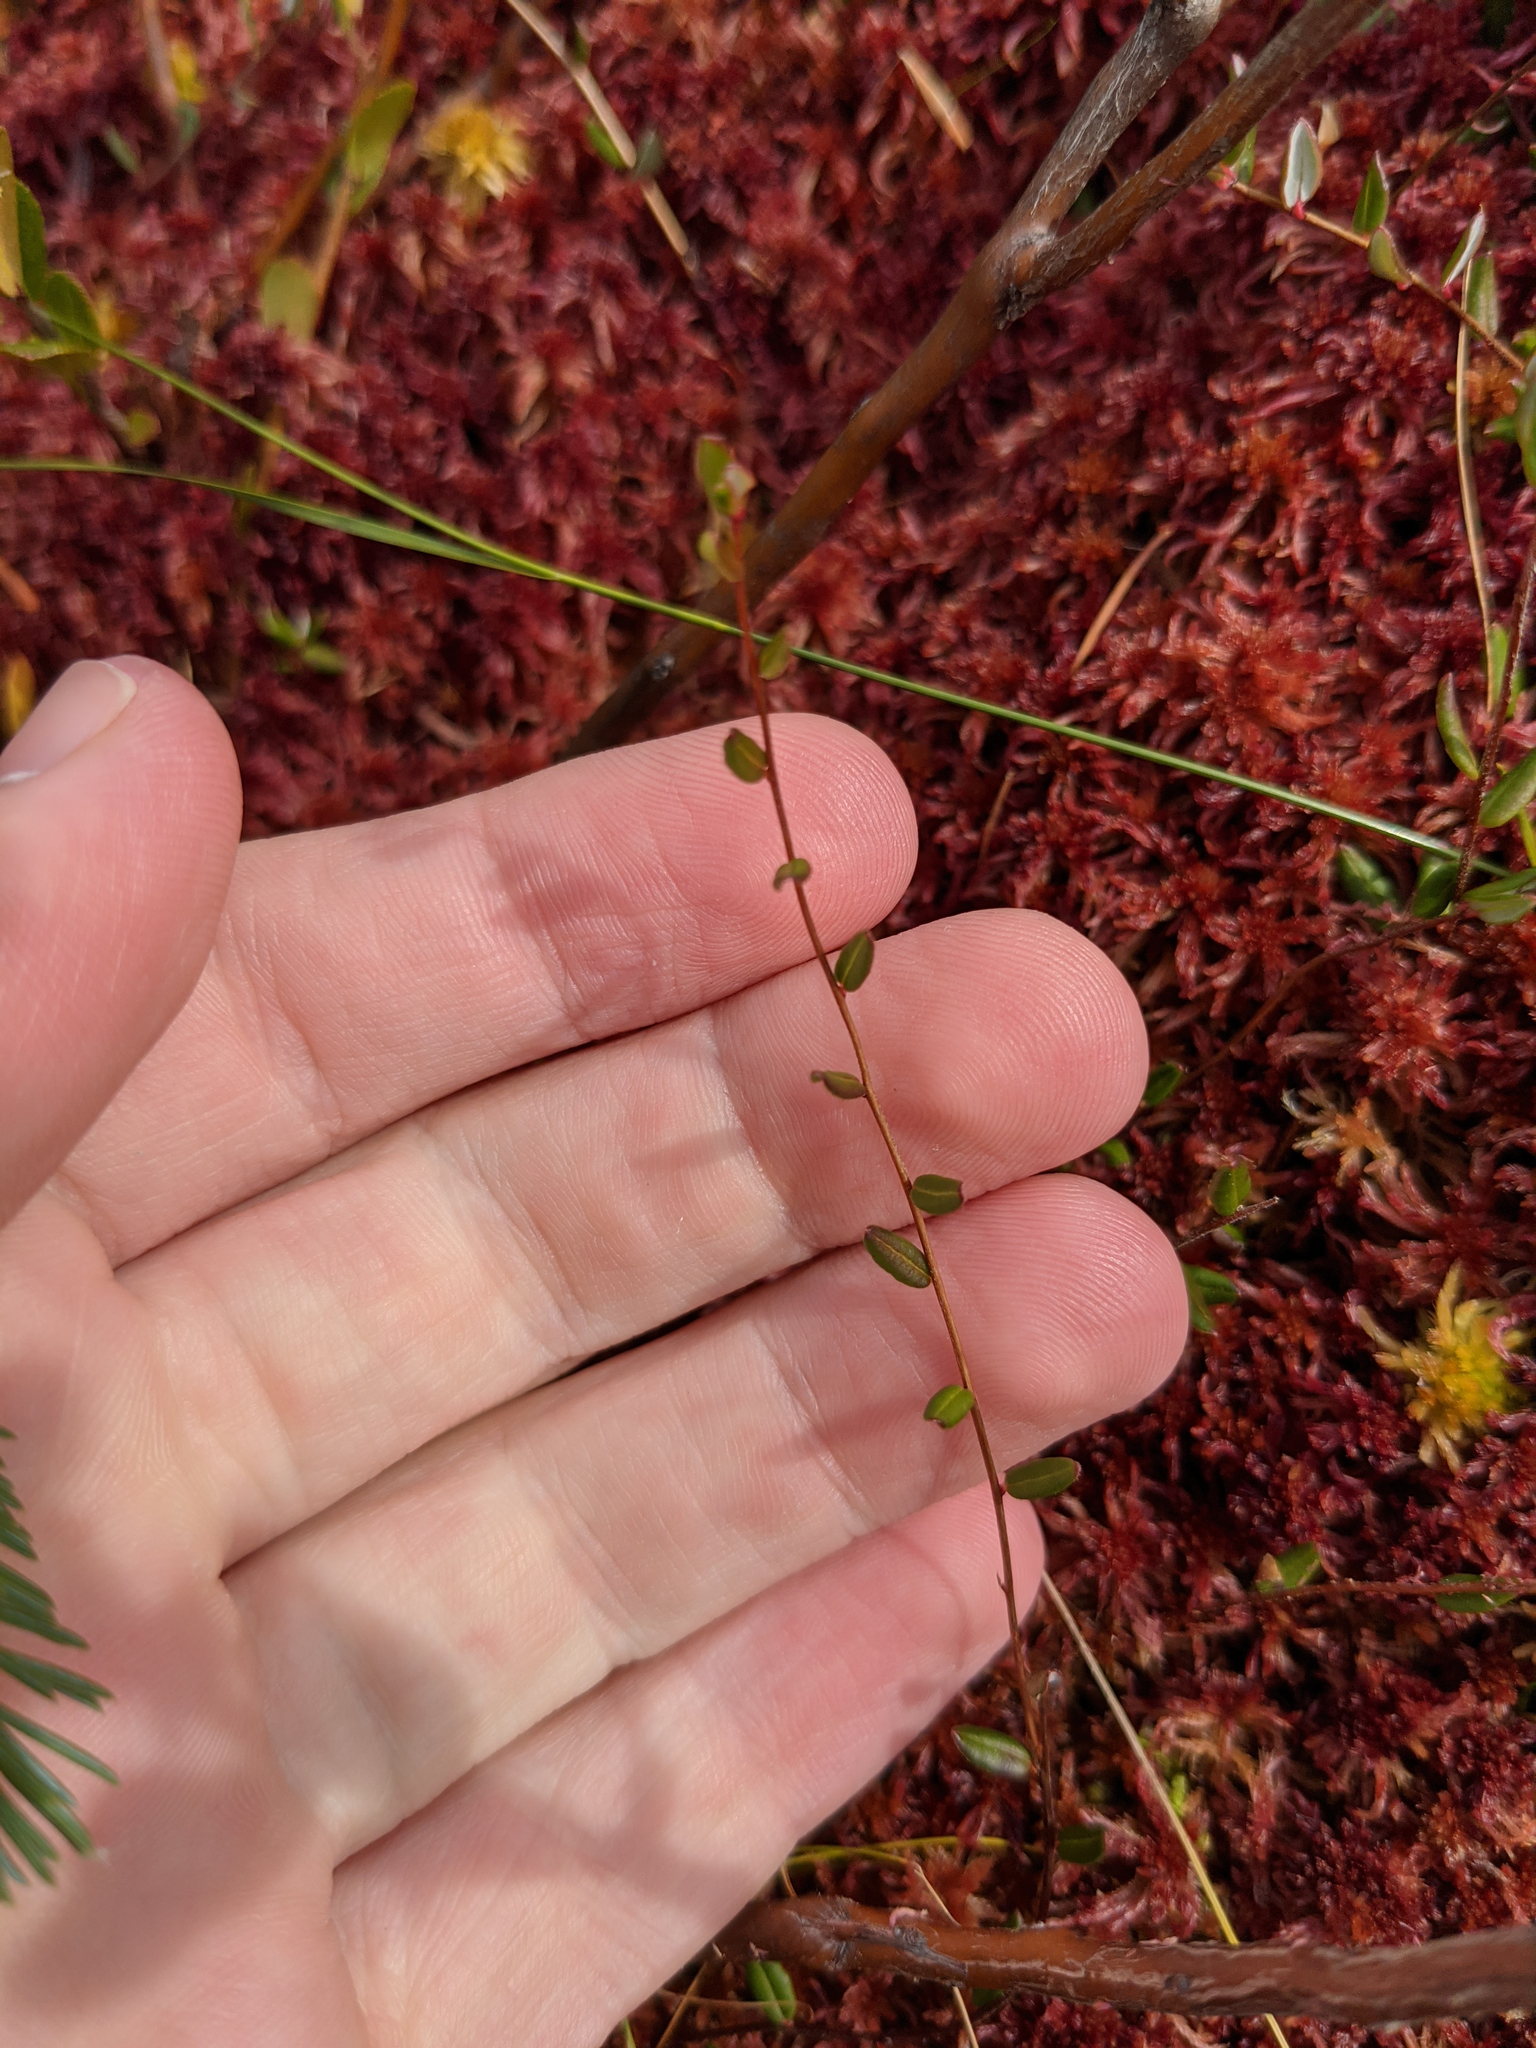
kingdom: Plantae
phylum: Tracheophyta
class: Magnoliopsida
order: Ericales
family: Ericaceae
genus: Vaccinium
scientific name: Vaccinium oxycoccos
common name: Cranberry
